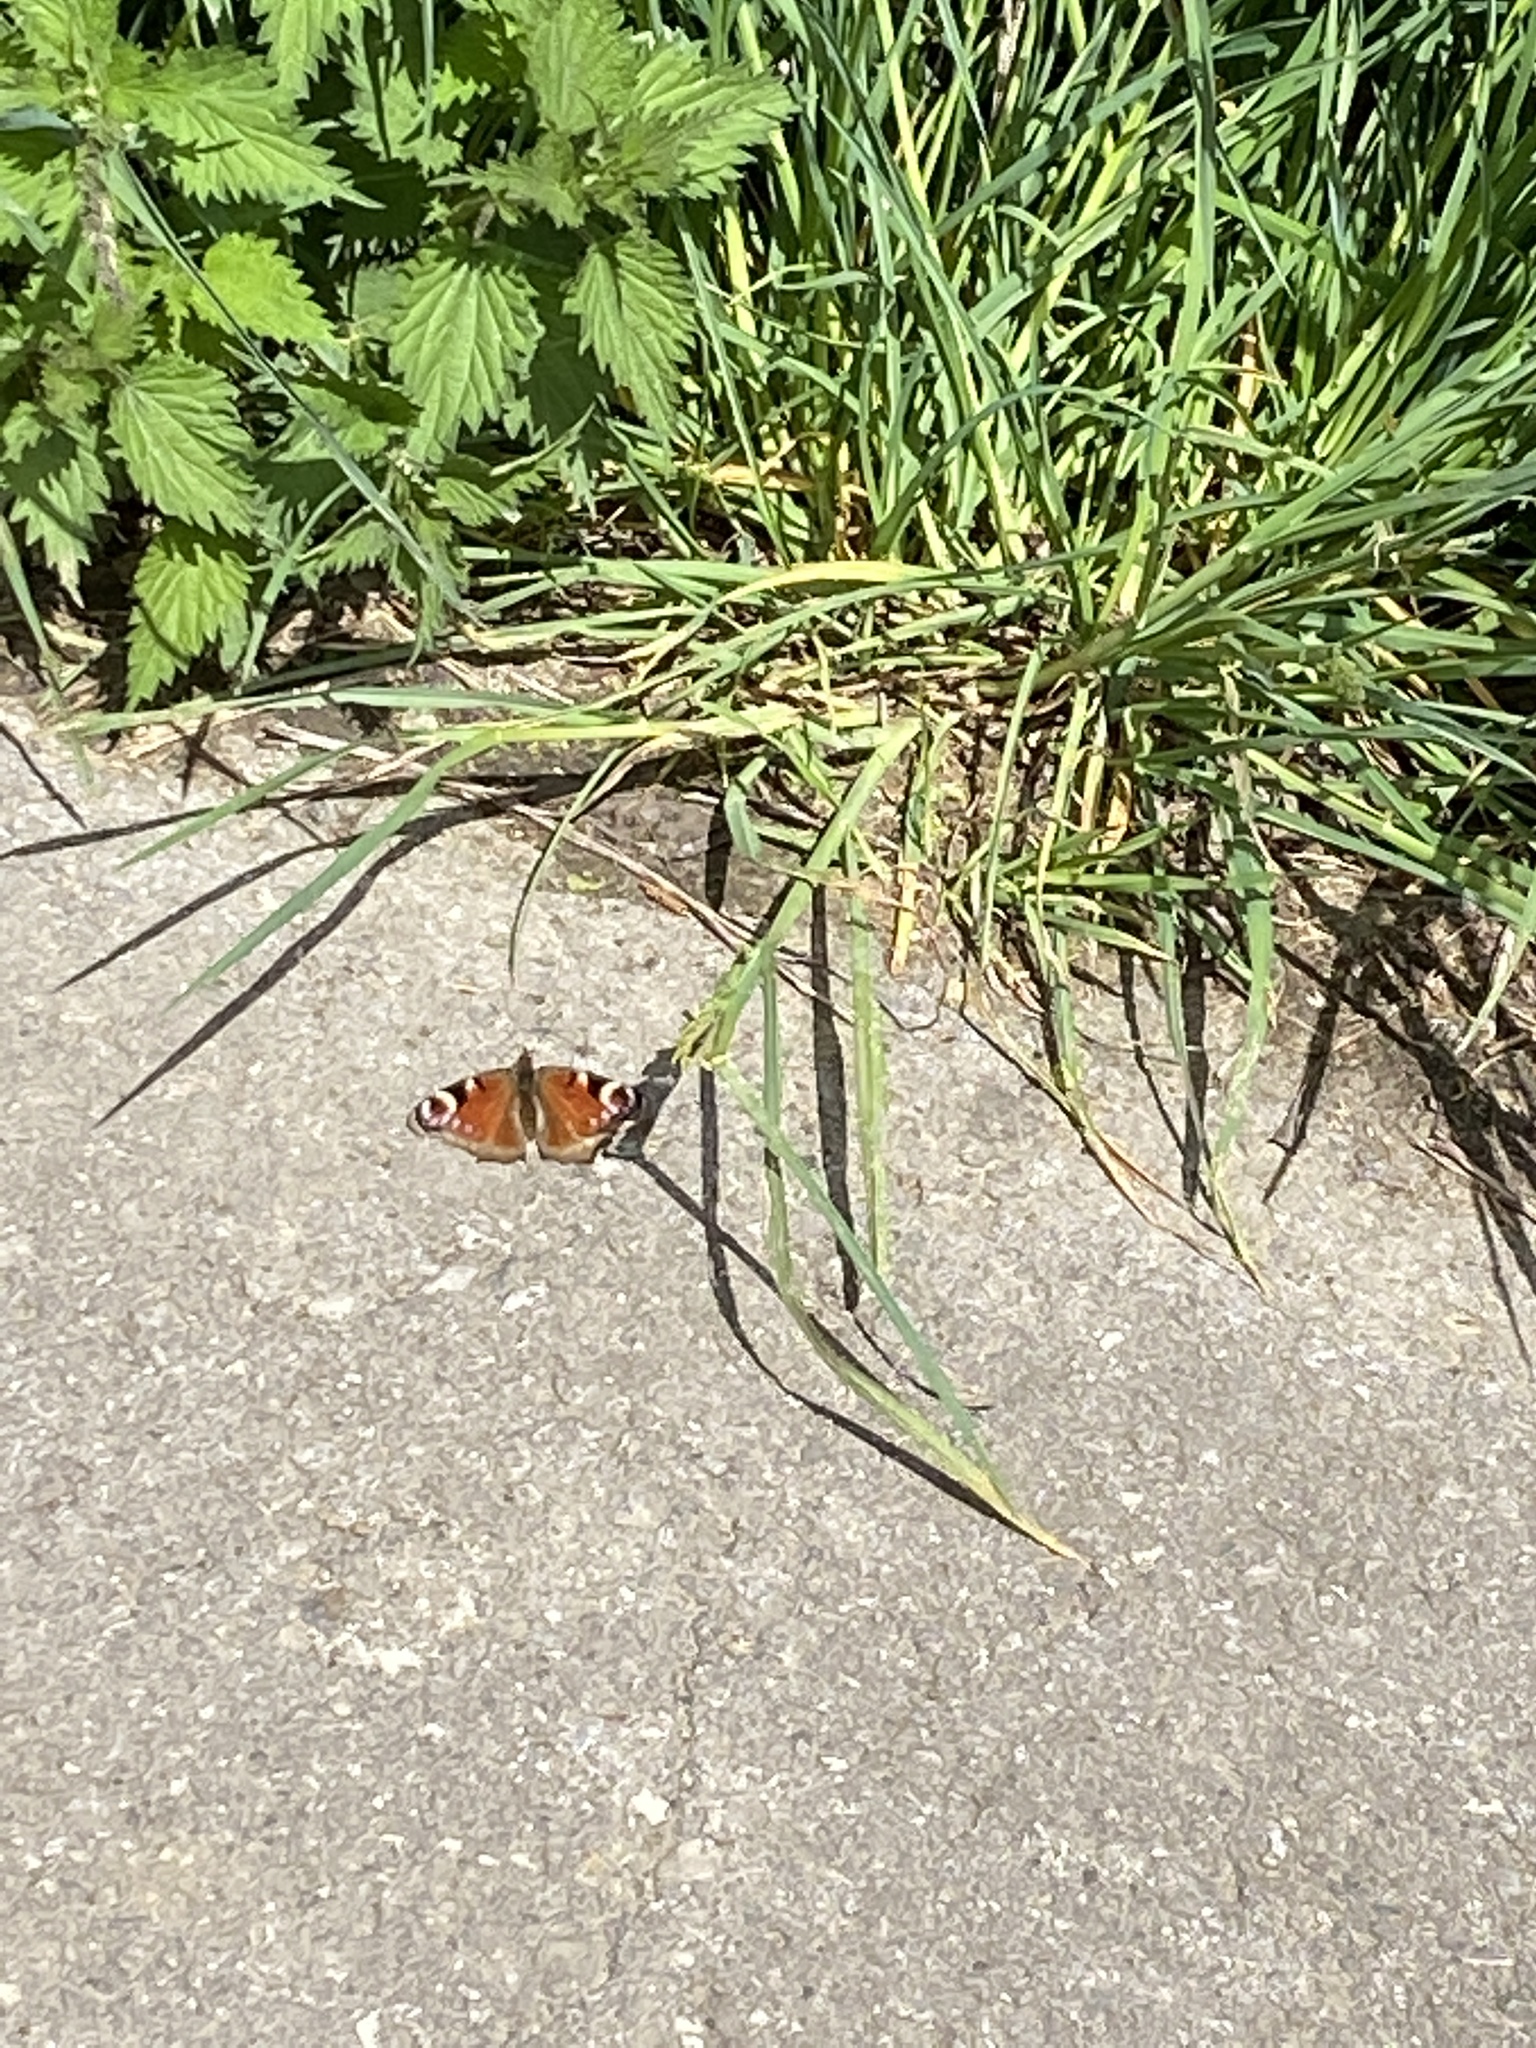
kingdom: Animalia
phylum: Arthropoda
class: Insecta
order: Lepidoptera
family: Nymphalidae
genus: Aglais
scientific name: Aglais io
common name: Peacock
